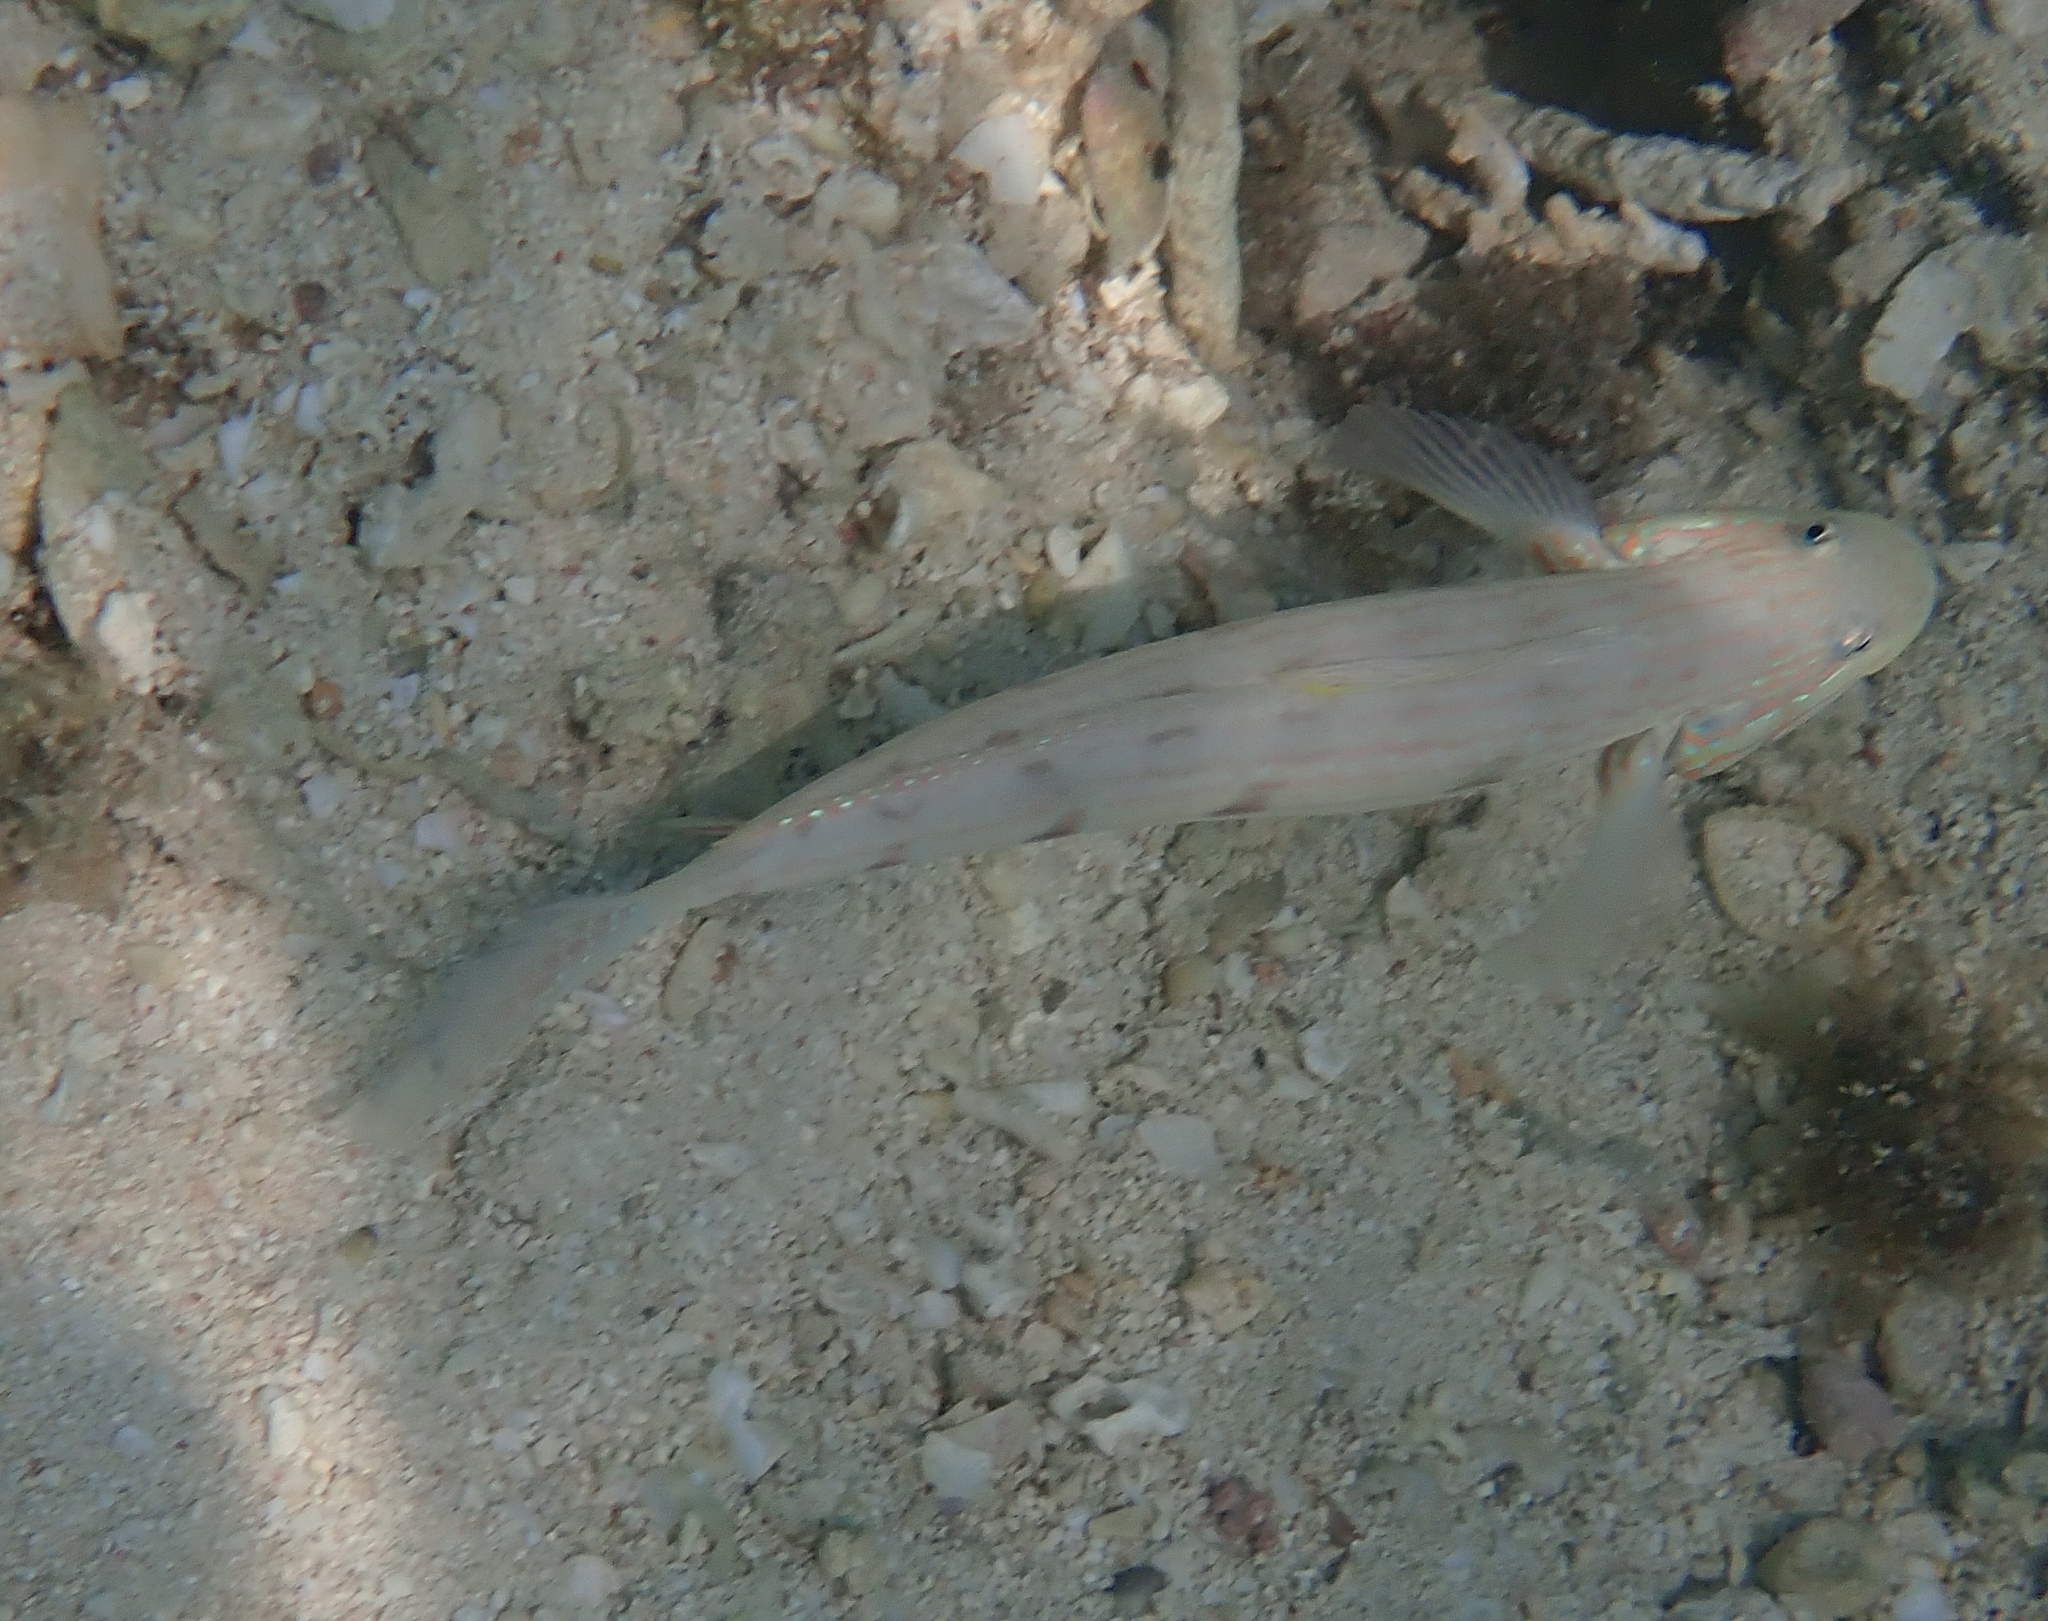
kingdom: Animalia
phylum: Chordata
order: Perciformes
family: Gobiidae
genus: Valenciennea
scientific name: Valenciennea longipinnis
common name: Longfinned goby
